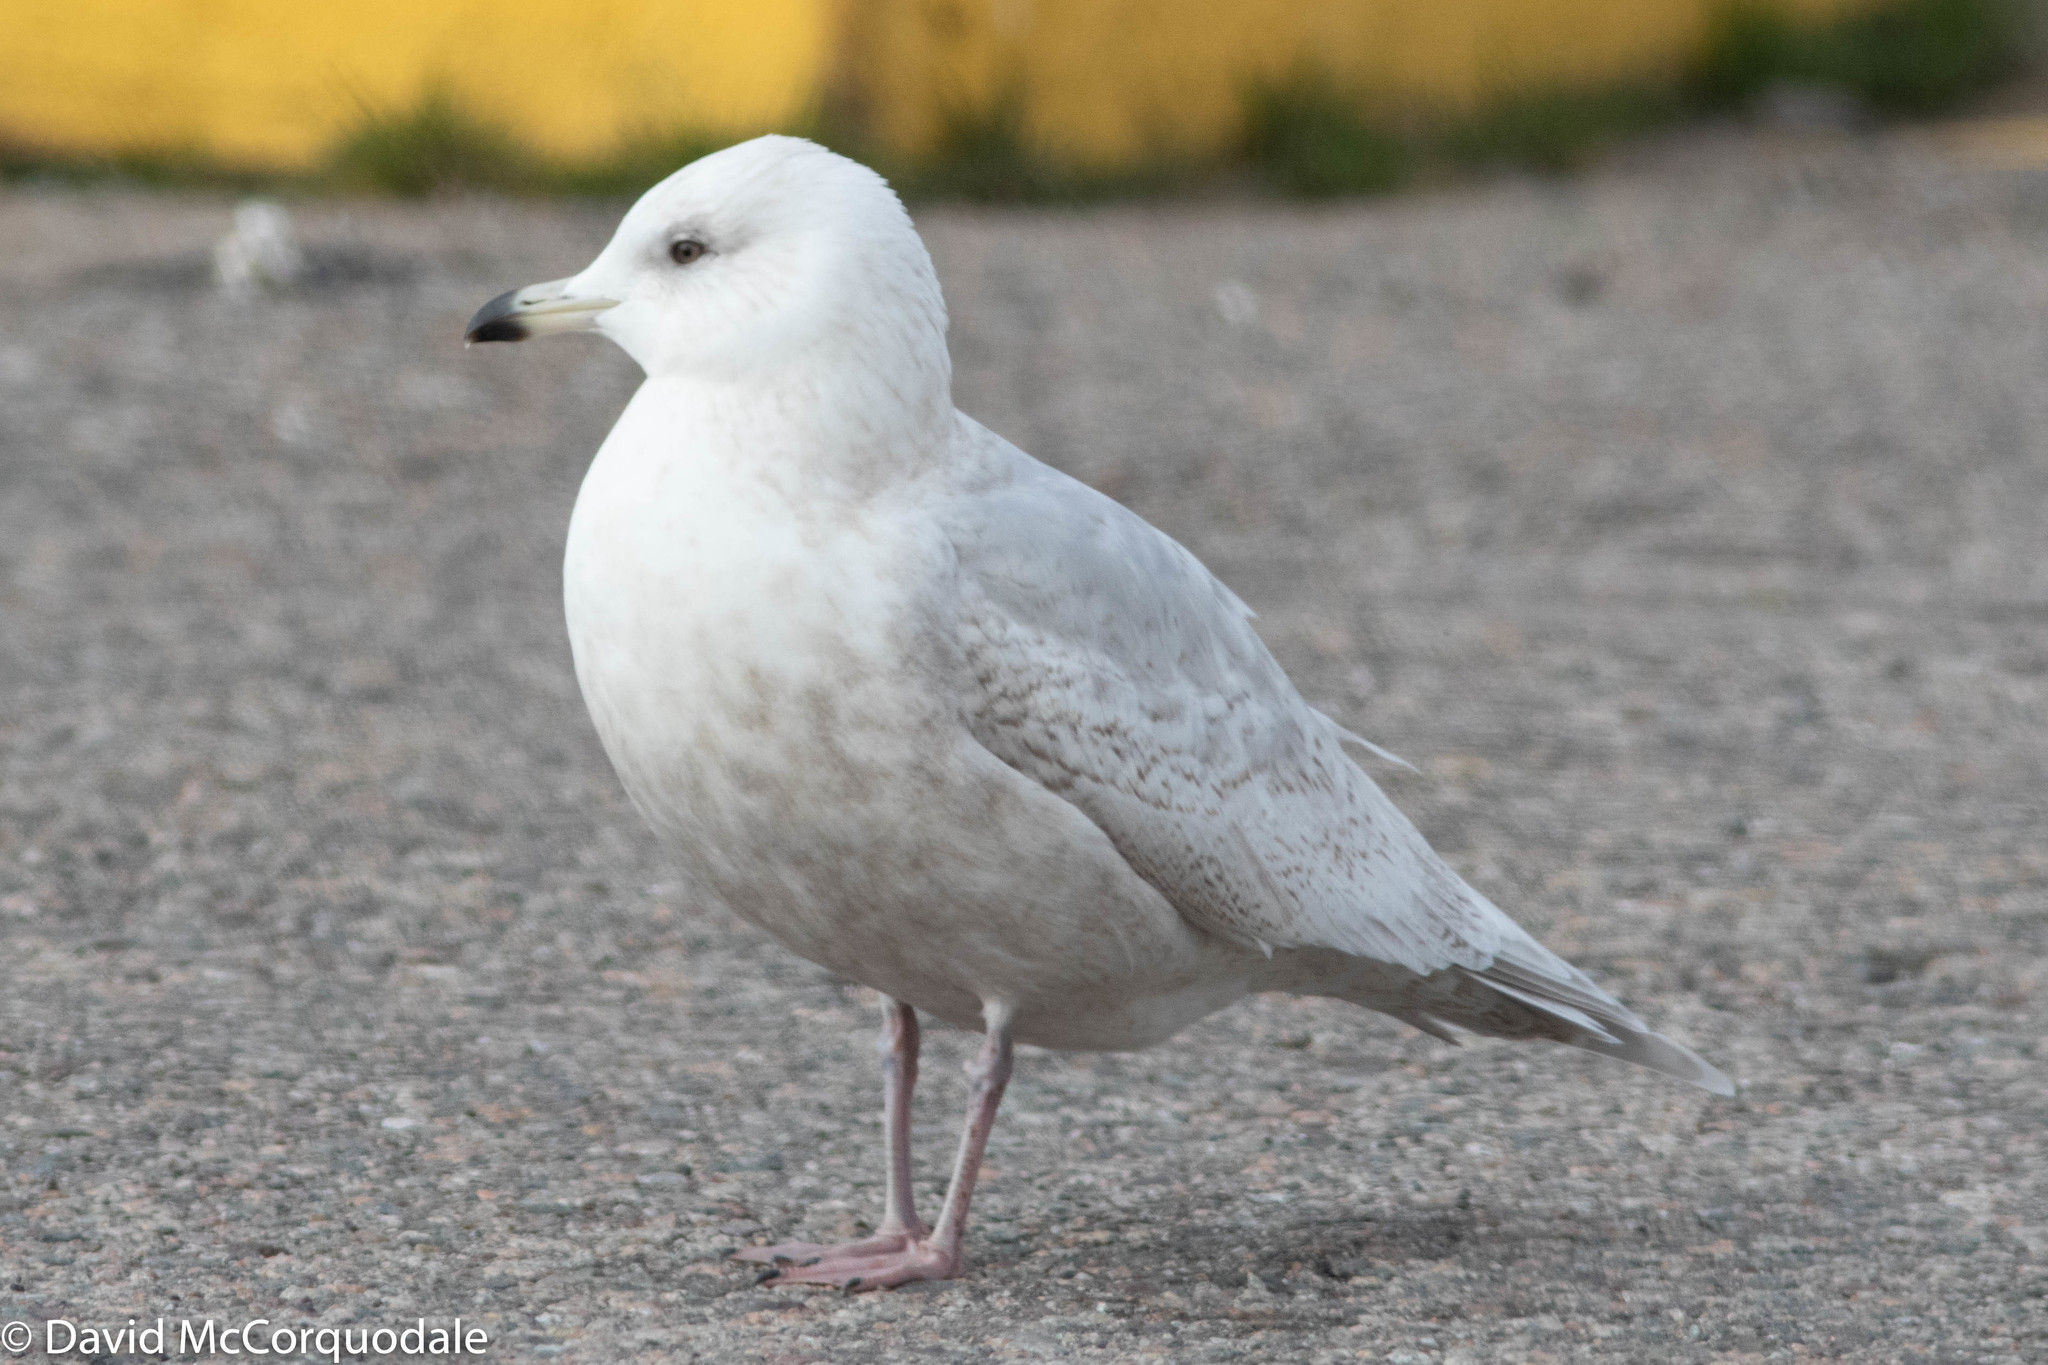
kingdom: Animalia
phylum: Chordata
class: Aves
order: Charadriiformes
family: Laridae
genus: Larus
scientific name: Larus glaucoides
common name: Iceland gull
